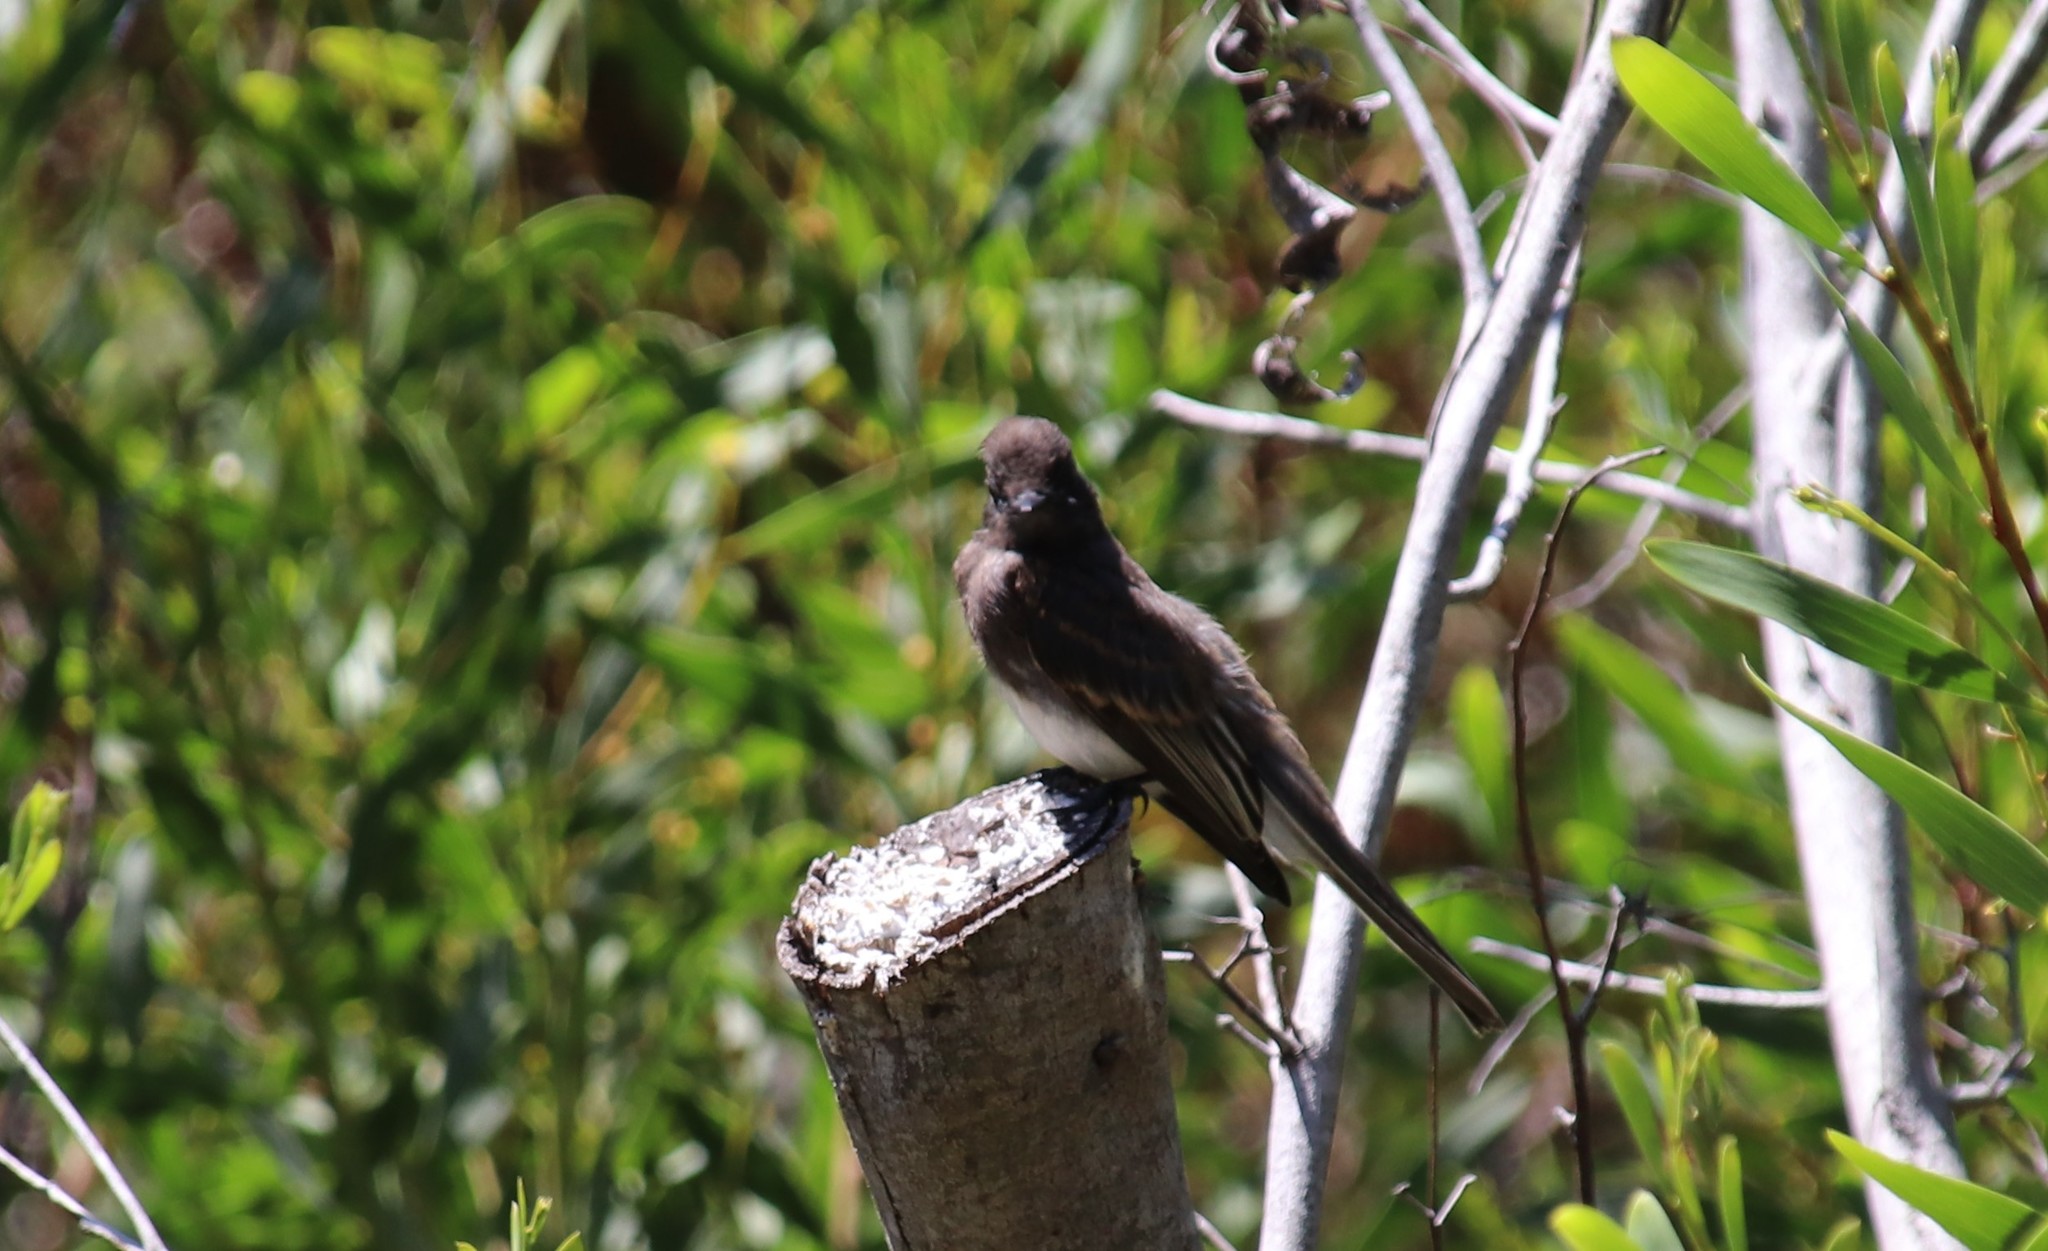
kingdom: Animalia
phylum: Chordata
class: Aves
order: Passeriformes
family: Tyrannidae
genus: Sayornis
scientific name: Sayornis nigricans
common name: Black phoebe
